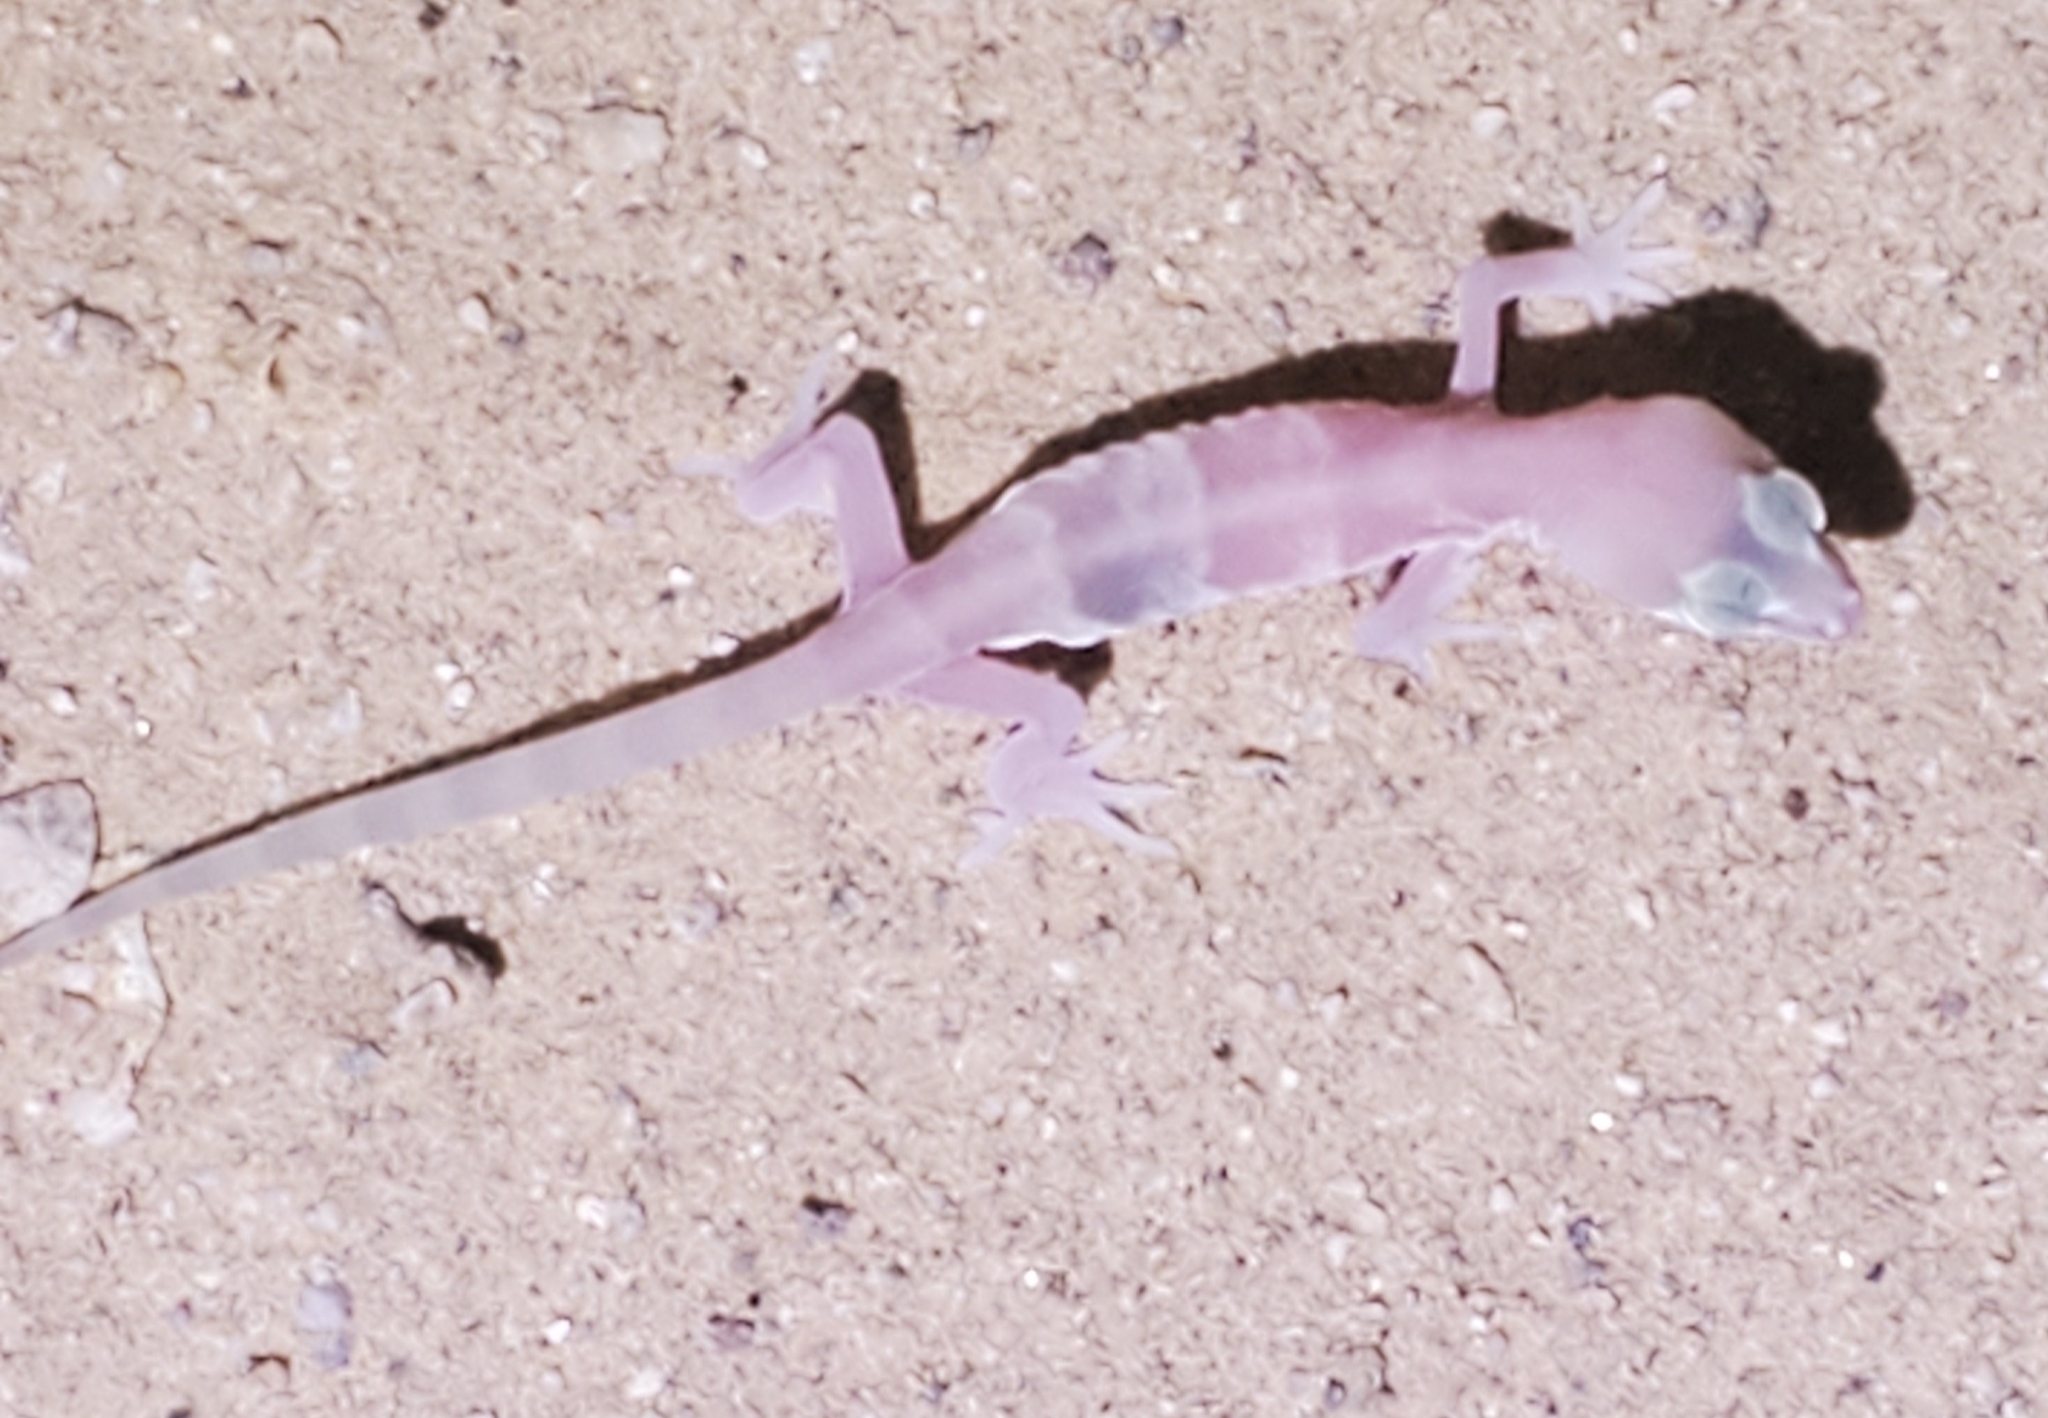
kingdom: Animalia
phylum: Chordata
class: Squamata
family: Eublepharidae
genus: Coleonyx
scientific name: Coleonyx variegatus
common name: Western banded gecko
